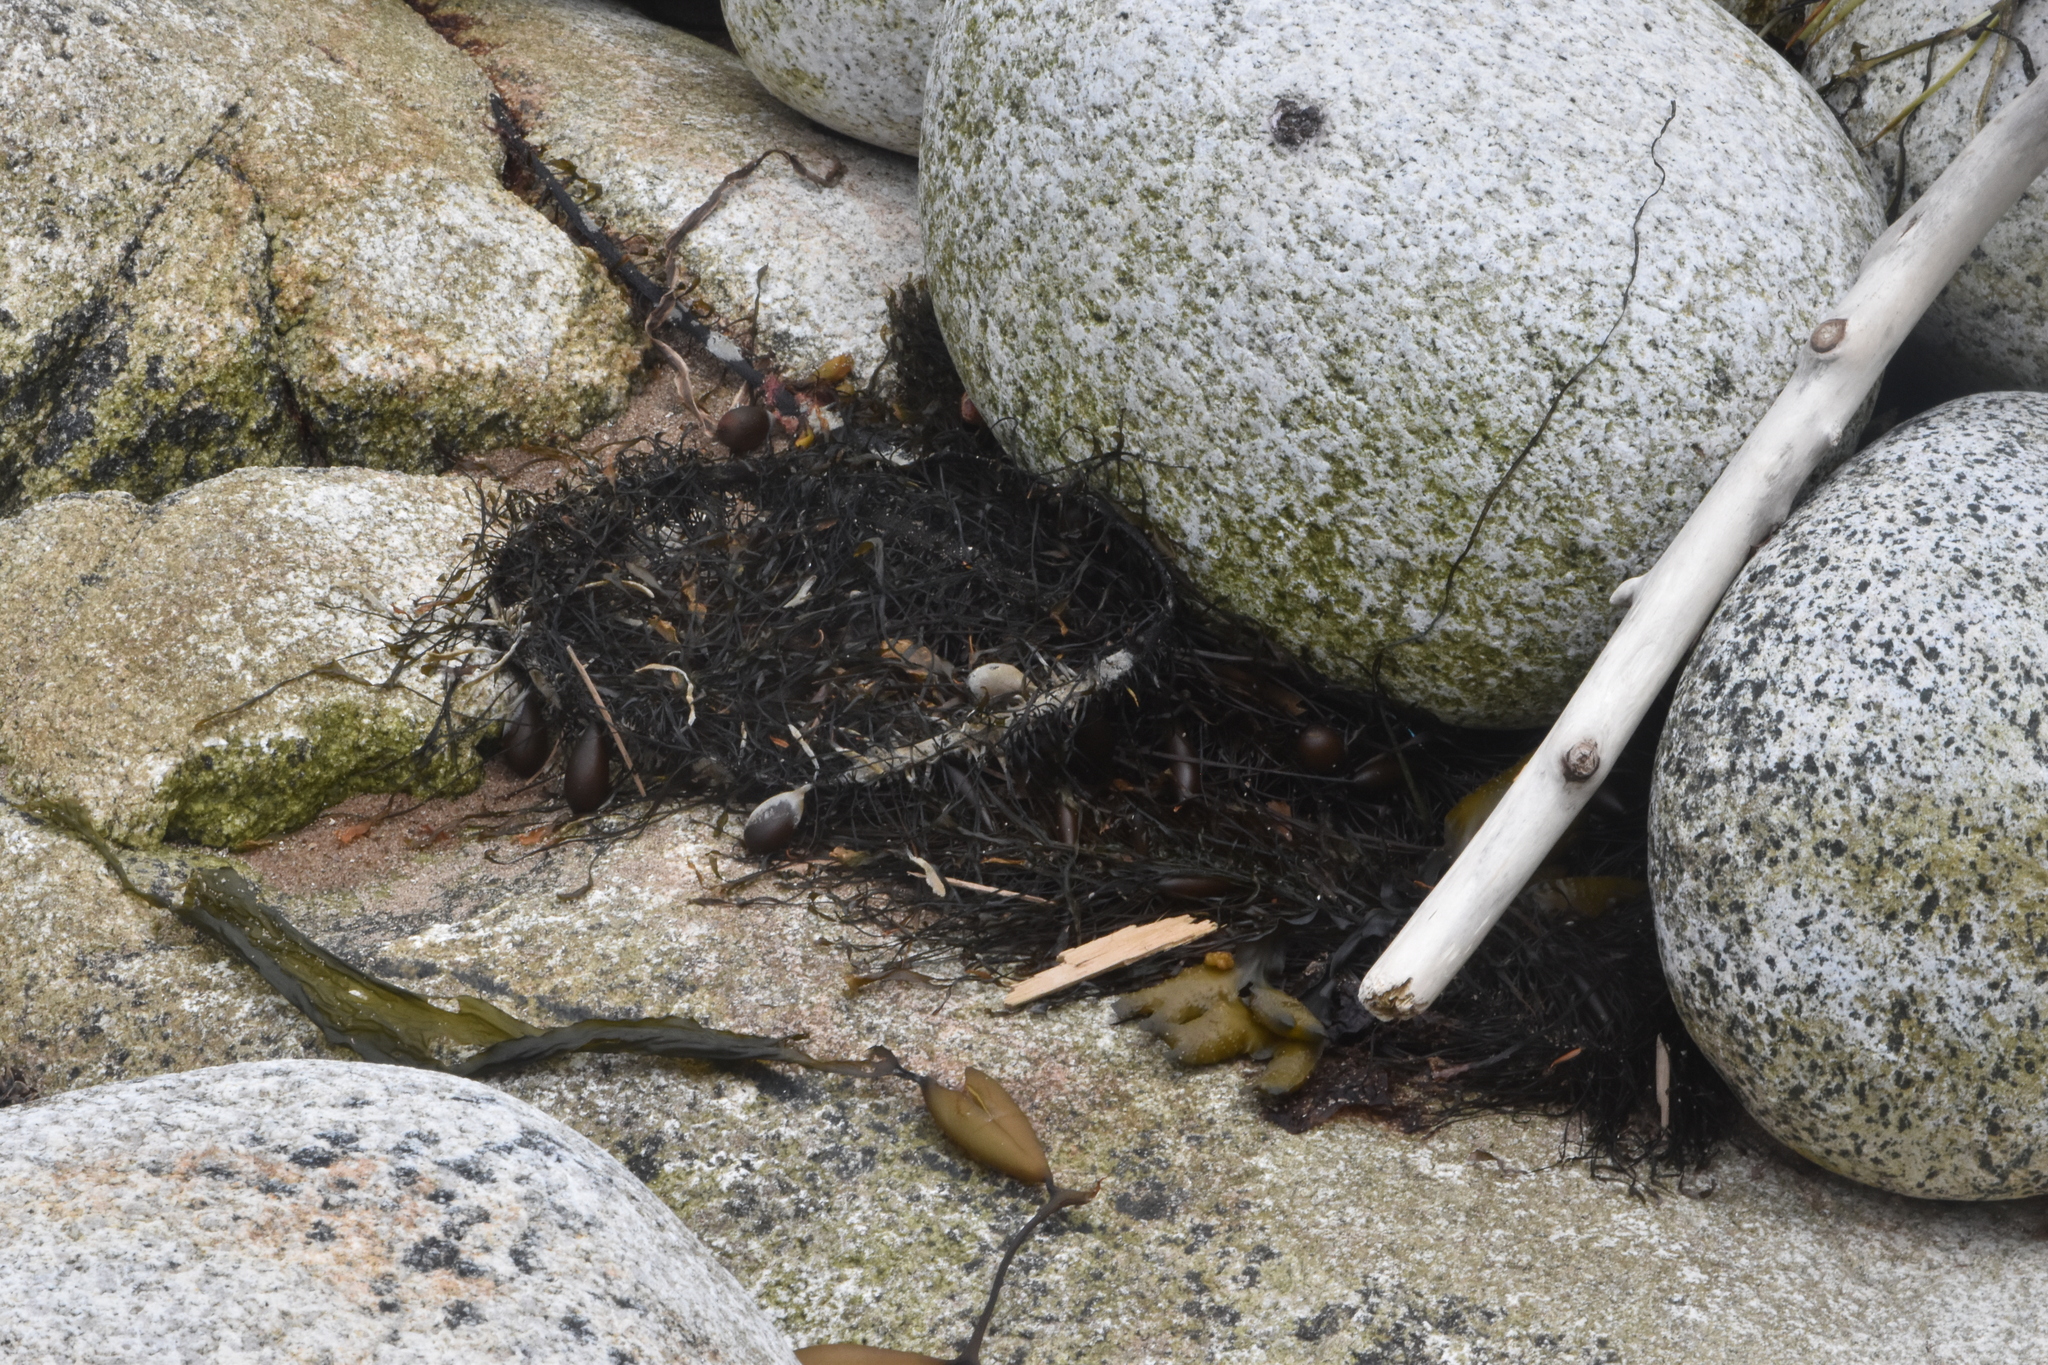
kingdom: Chromista
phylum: Ochrophyta
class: Phaeophyceae
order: Laminariales
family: Lessoniaceae
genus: Egregia
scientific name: Egregia menziesii
